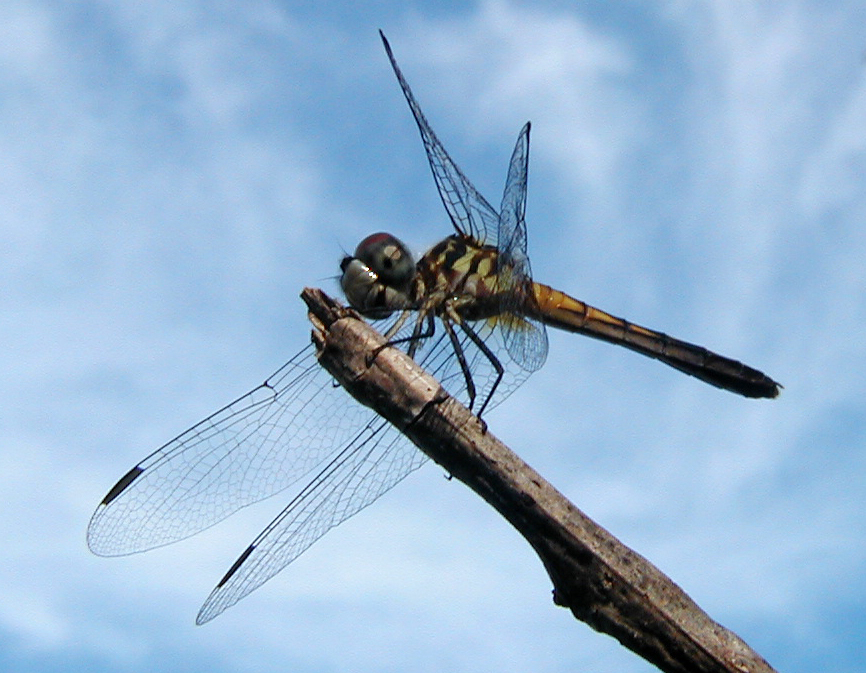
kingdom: Animalia
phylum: Arthropoda
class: Insecta
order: Odonata
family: Libellulidae
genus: Pachydiplax
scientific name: Pachydiplax longipennis
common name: Blue dasher
